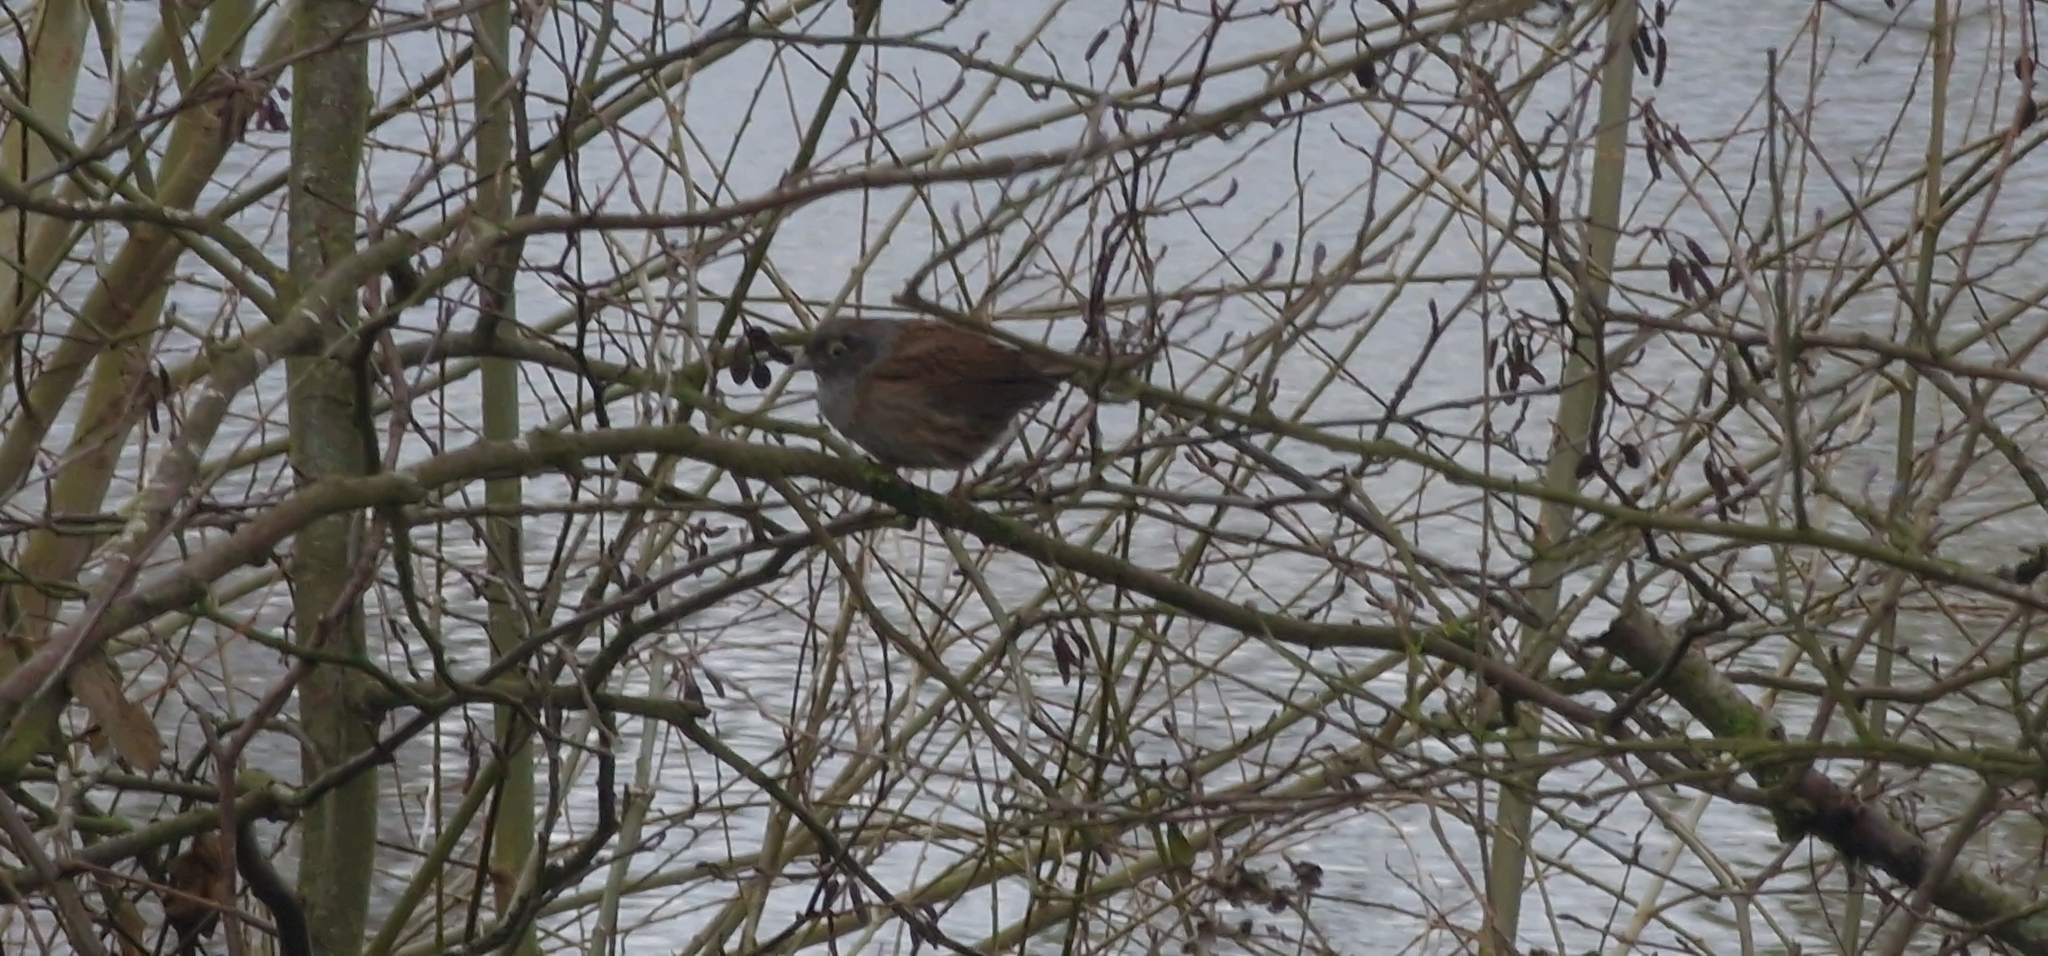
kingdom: Animalia
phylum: Chordata
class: Aves
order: Passeriformes
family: Prunellidae
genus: Prunella
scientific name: Prunella modularis
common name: Dunnock
